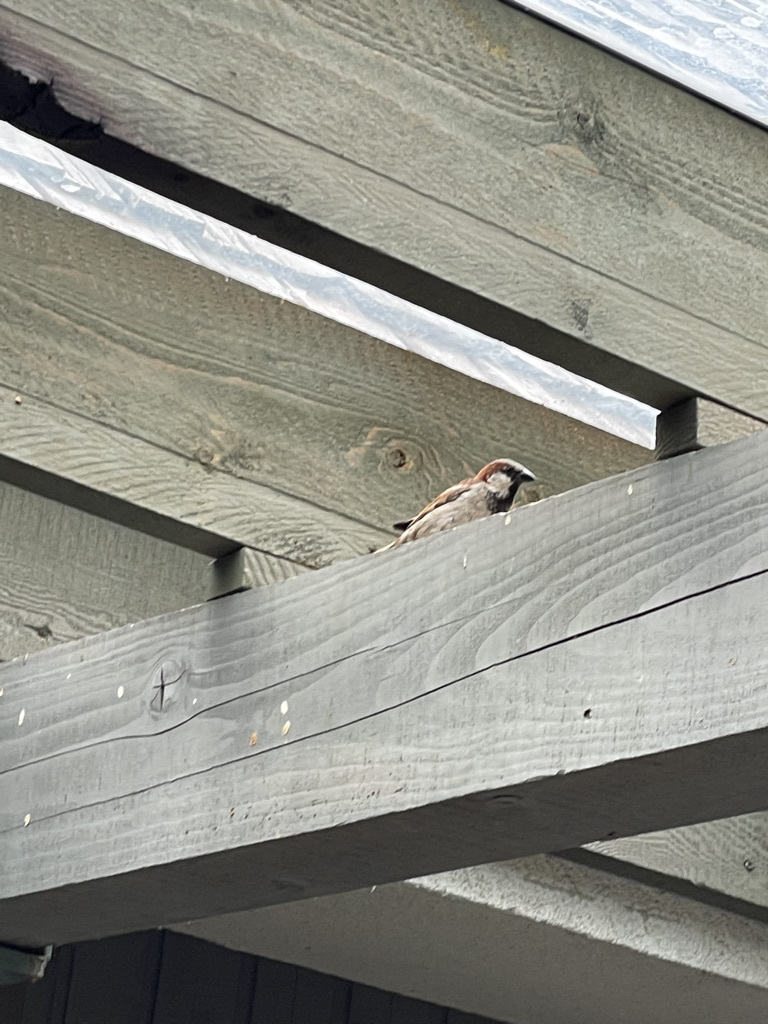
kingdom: Animalia
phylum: Chordata
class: Aves
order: Passeriformes
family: Passeridae
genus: Passer
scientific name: Passer domesticus
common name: House sparrow
